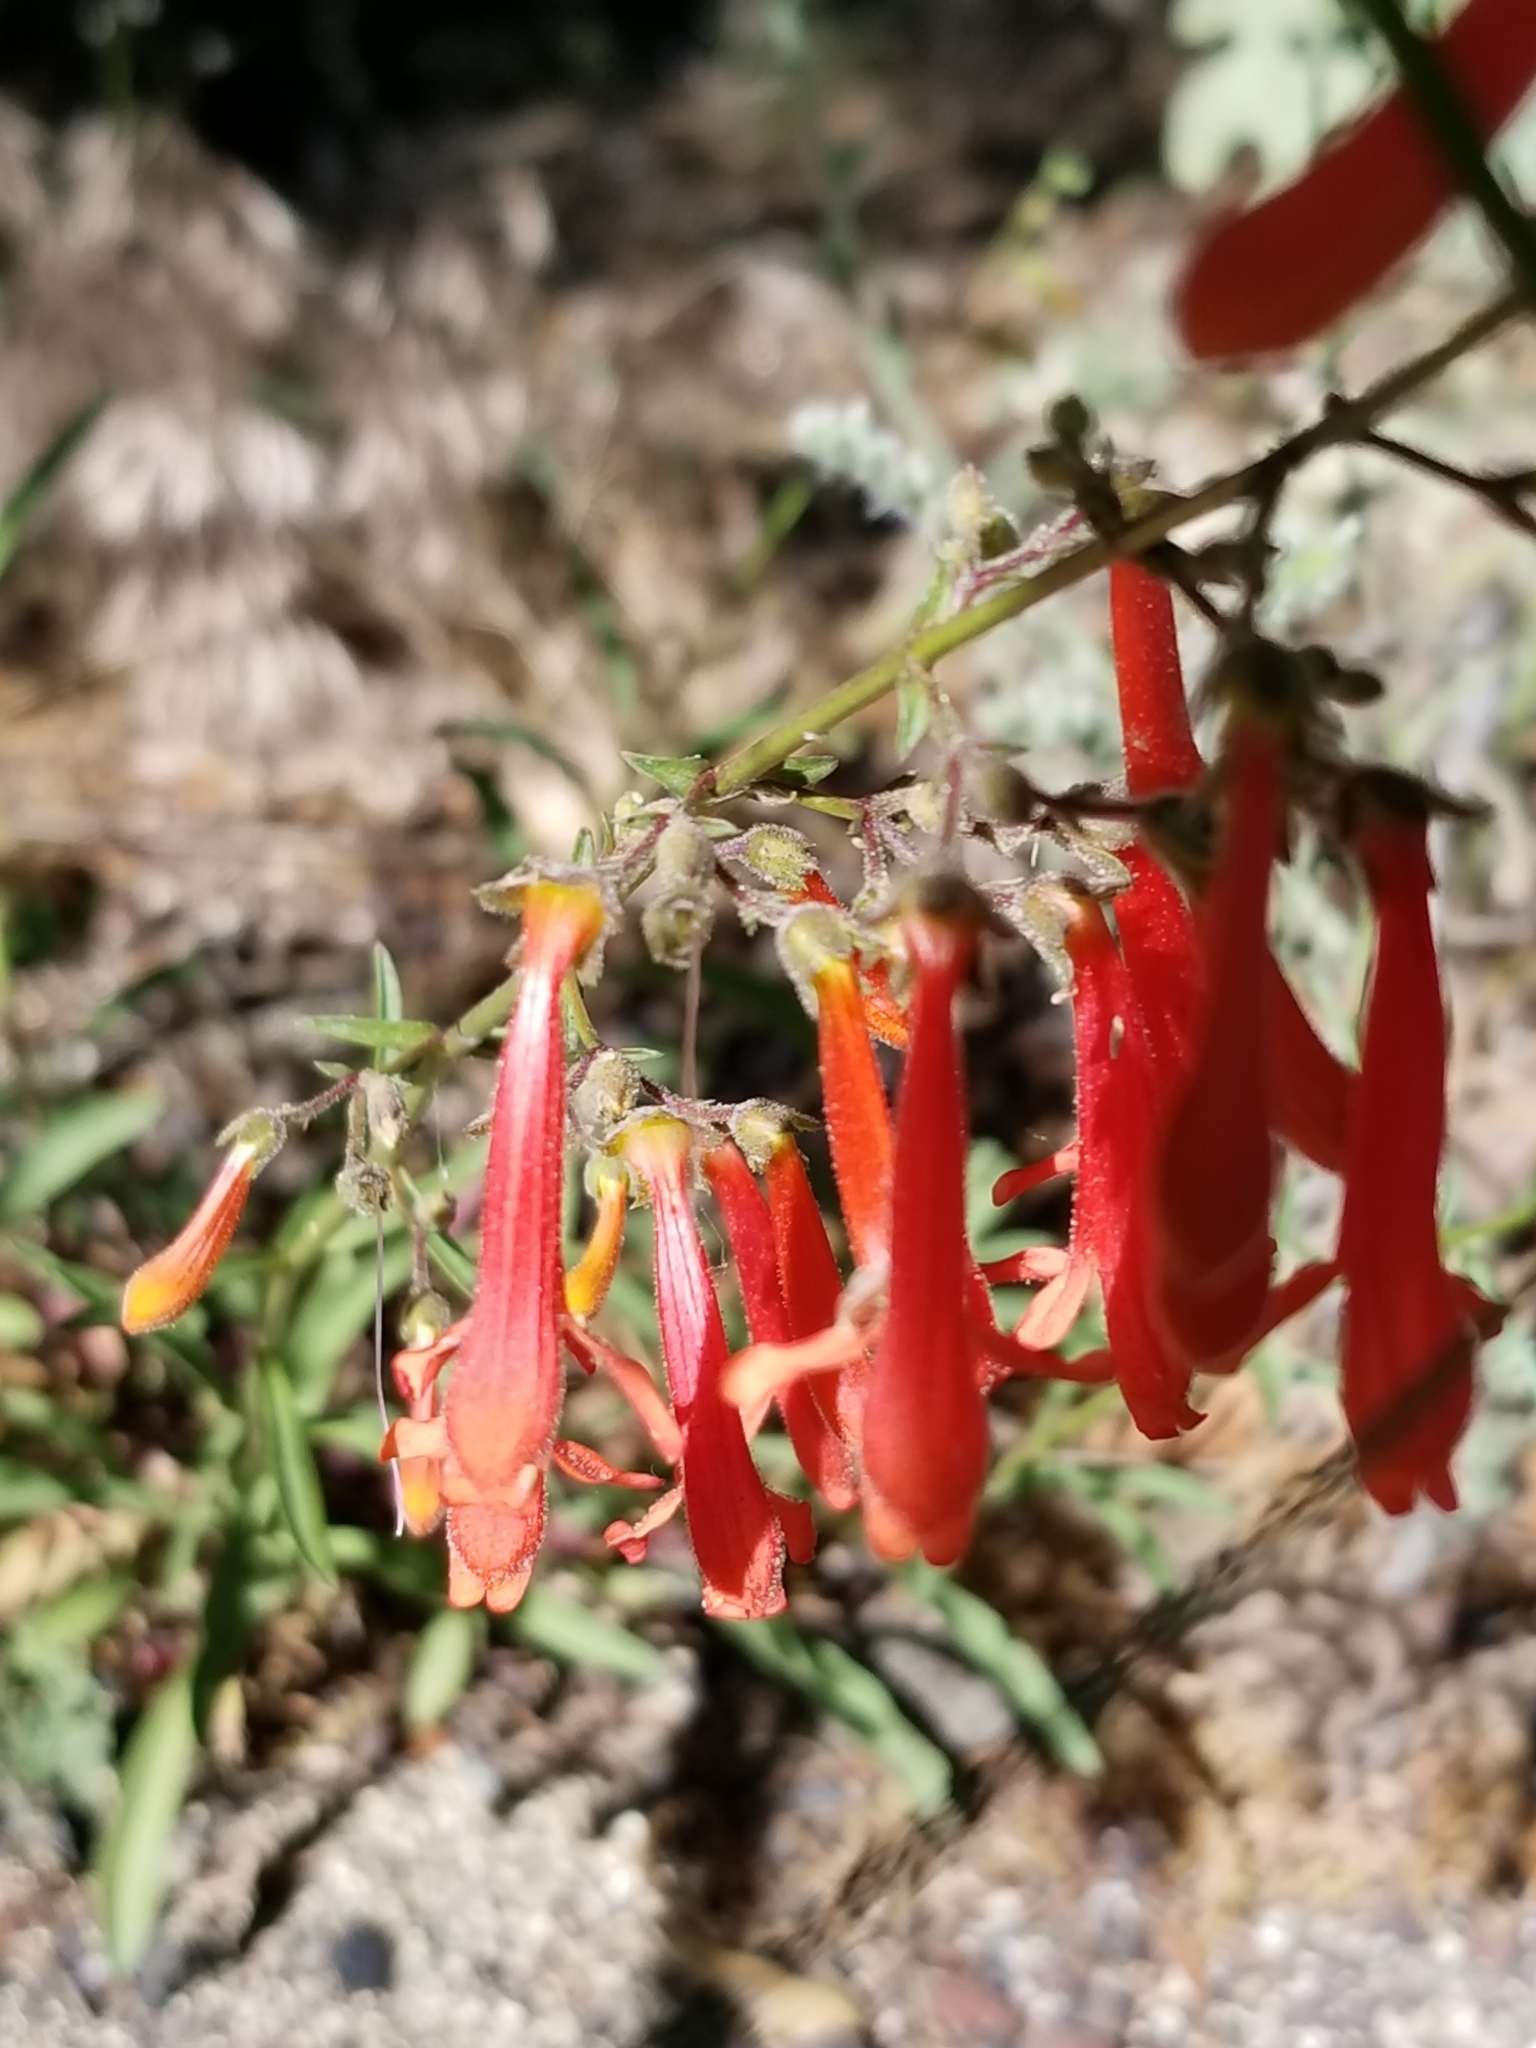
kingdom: Plantae
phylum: Tracheophyta
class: Magnoliopsida
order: Lamiales
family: Plantaginaceae
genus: Penstemon
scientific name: Penstemon rostriflorus
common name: Bridges's penstemon
